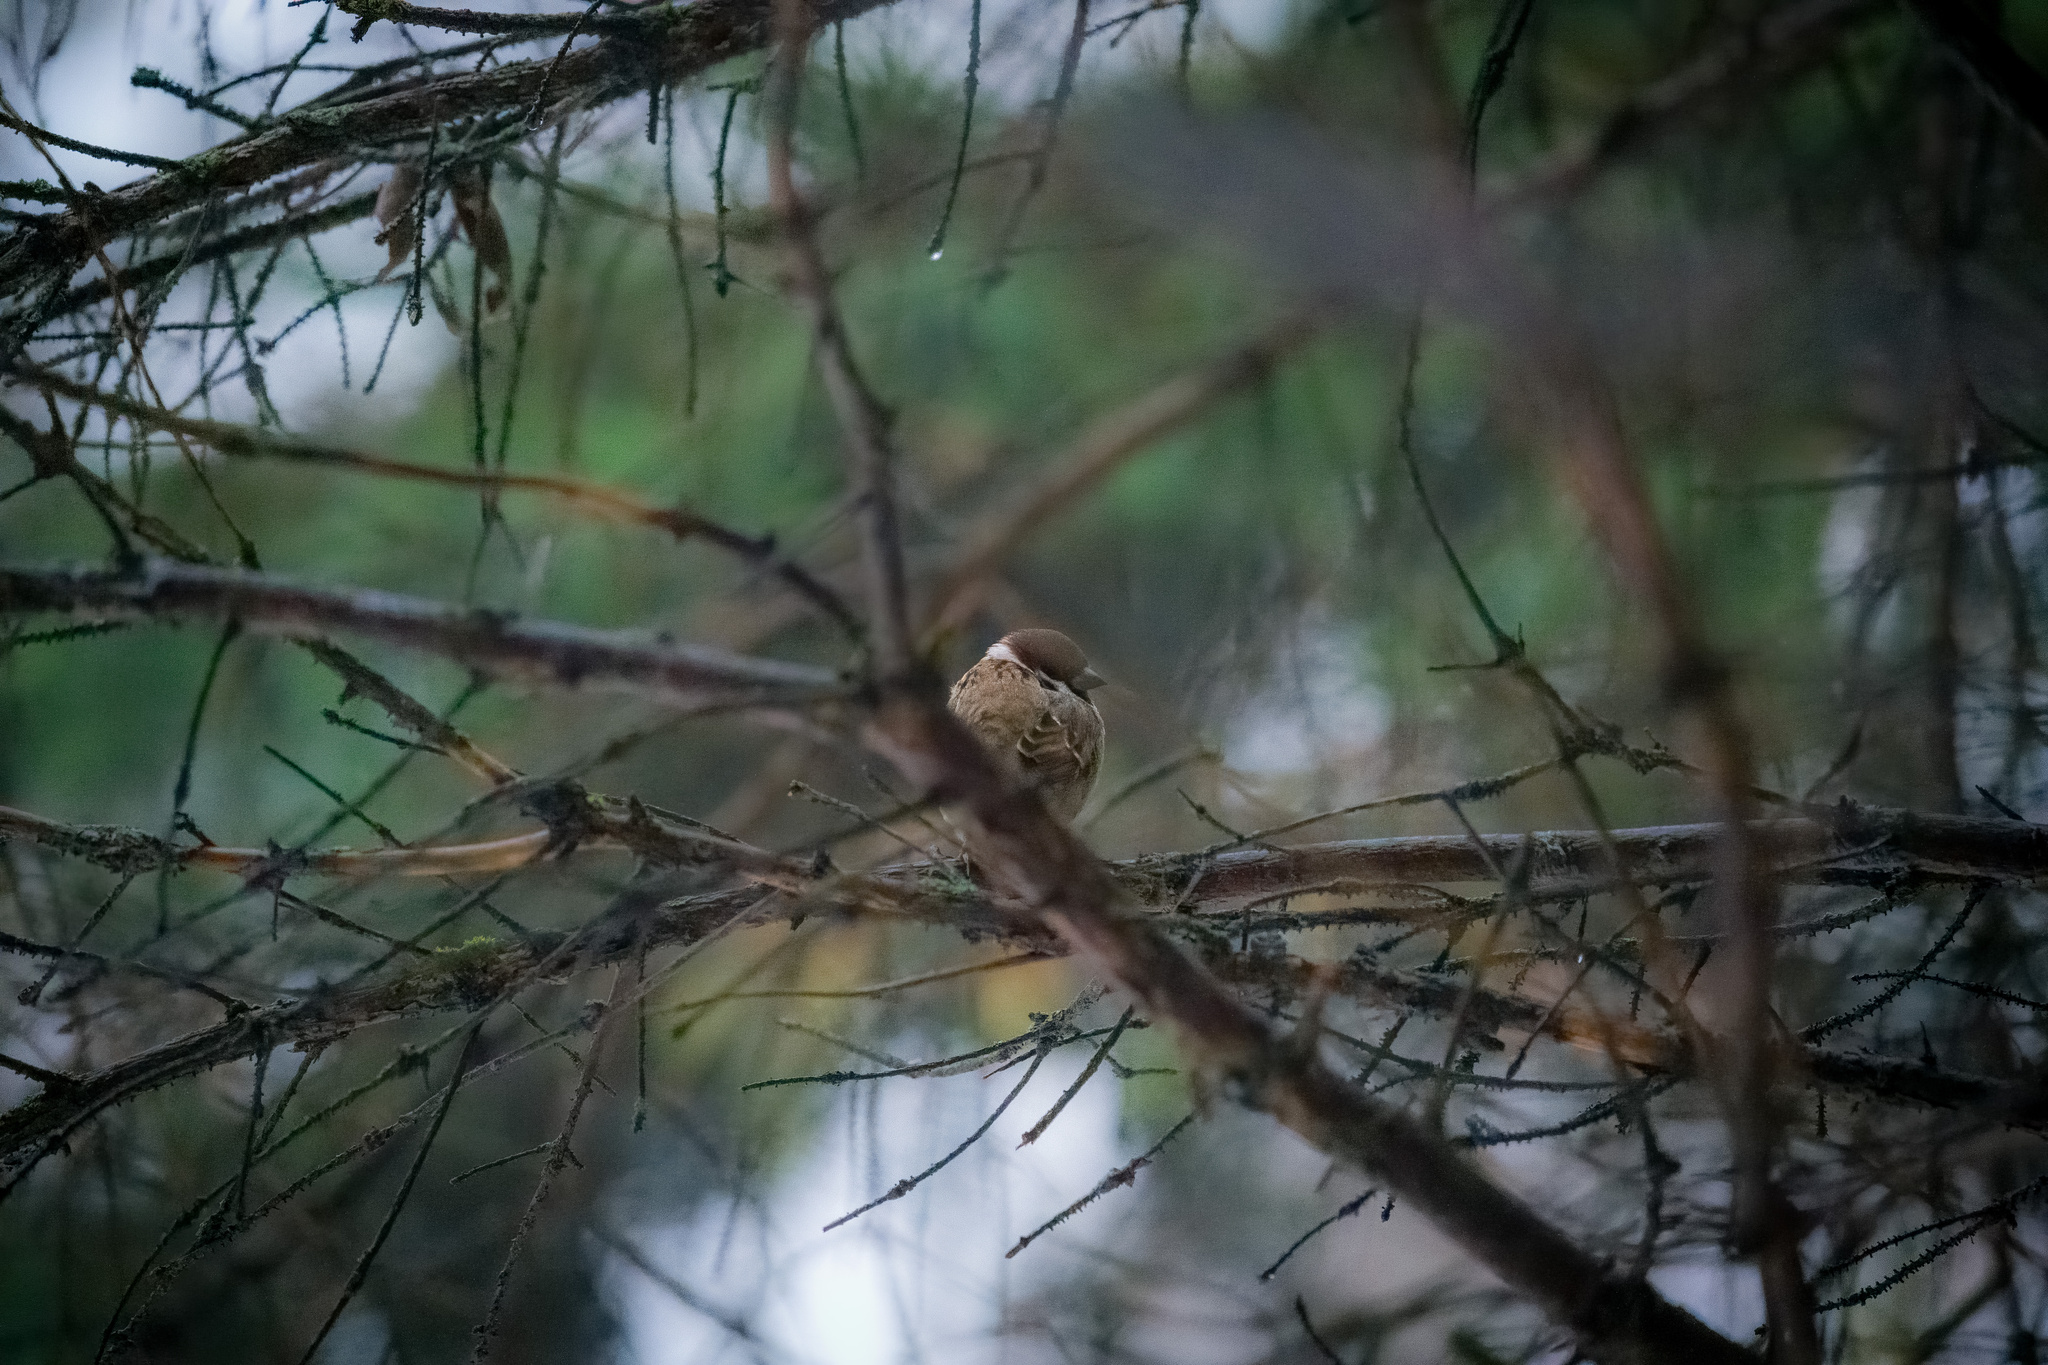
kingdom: Animalia
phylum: Chordata
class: Aves
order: Passeriformes
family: Passeridae
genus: Passer
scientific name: Passer montanus
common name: Eurasian tree sparrow
